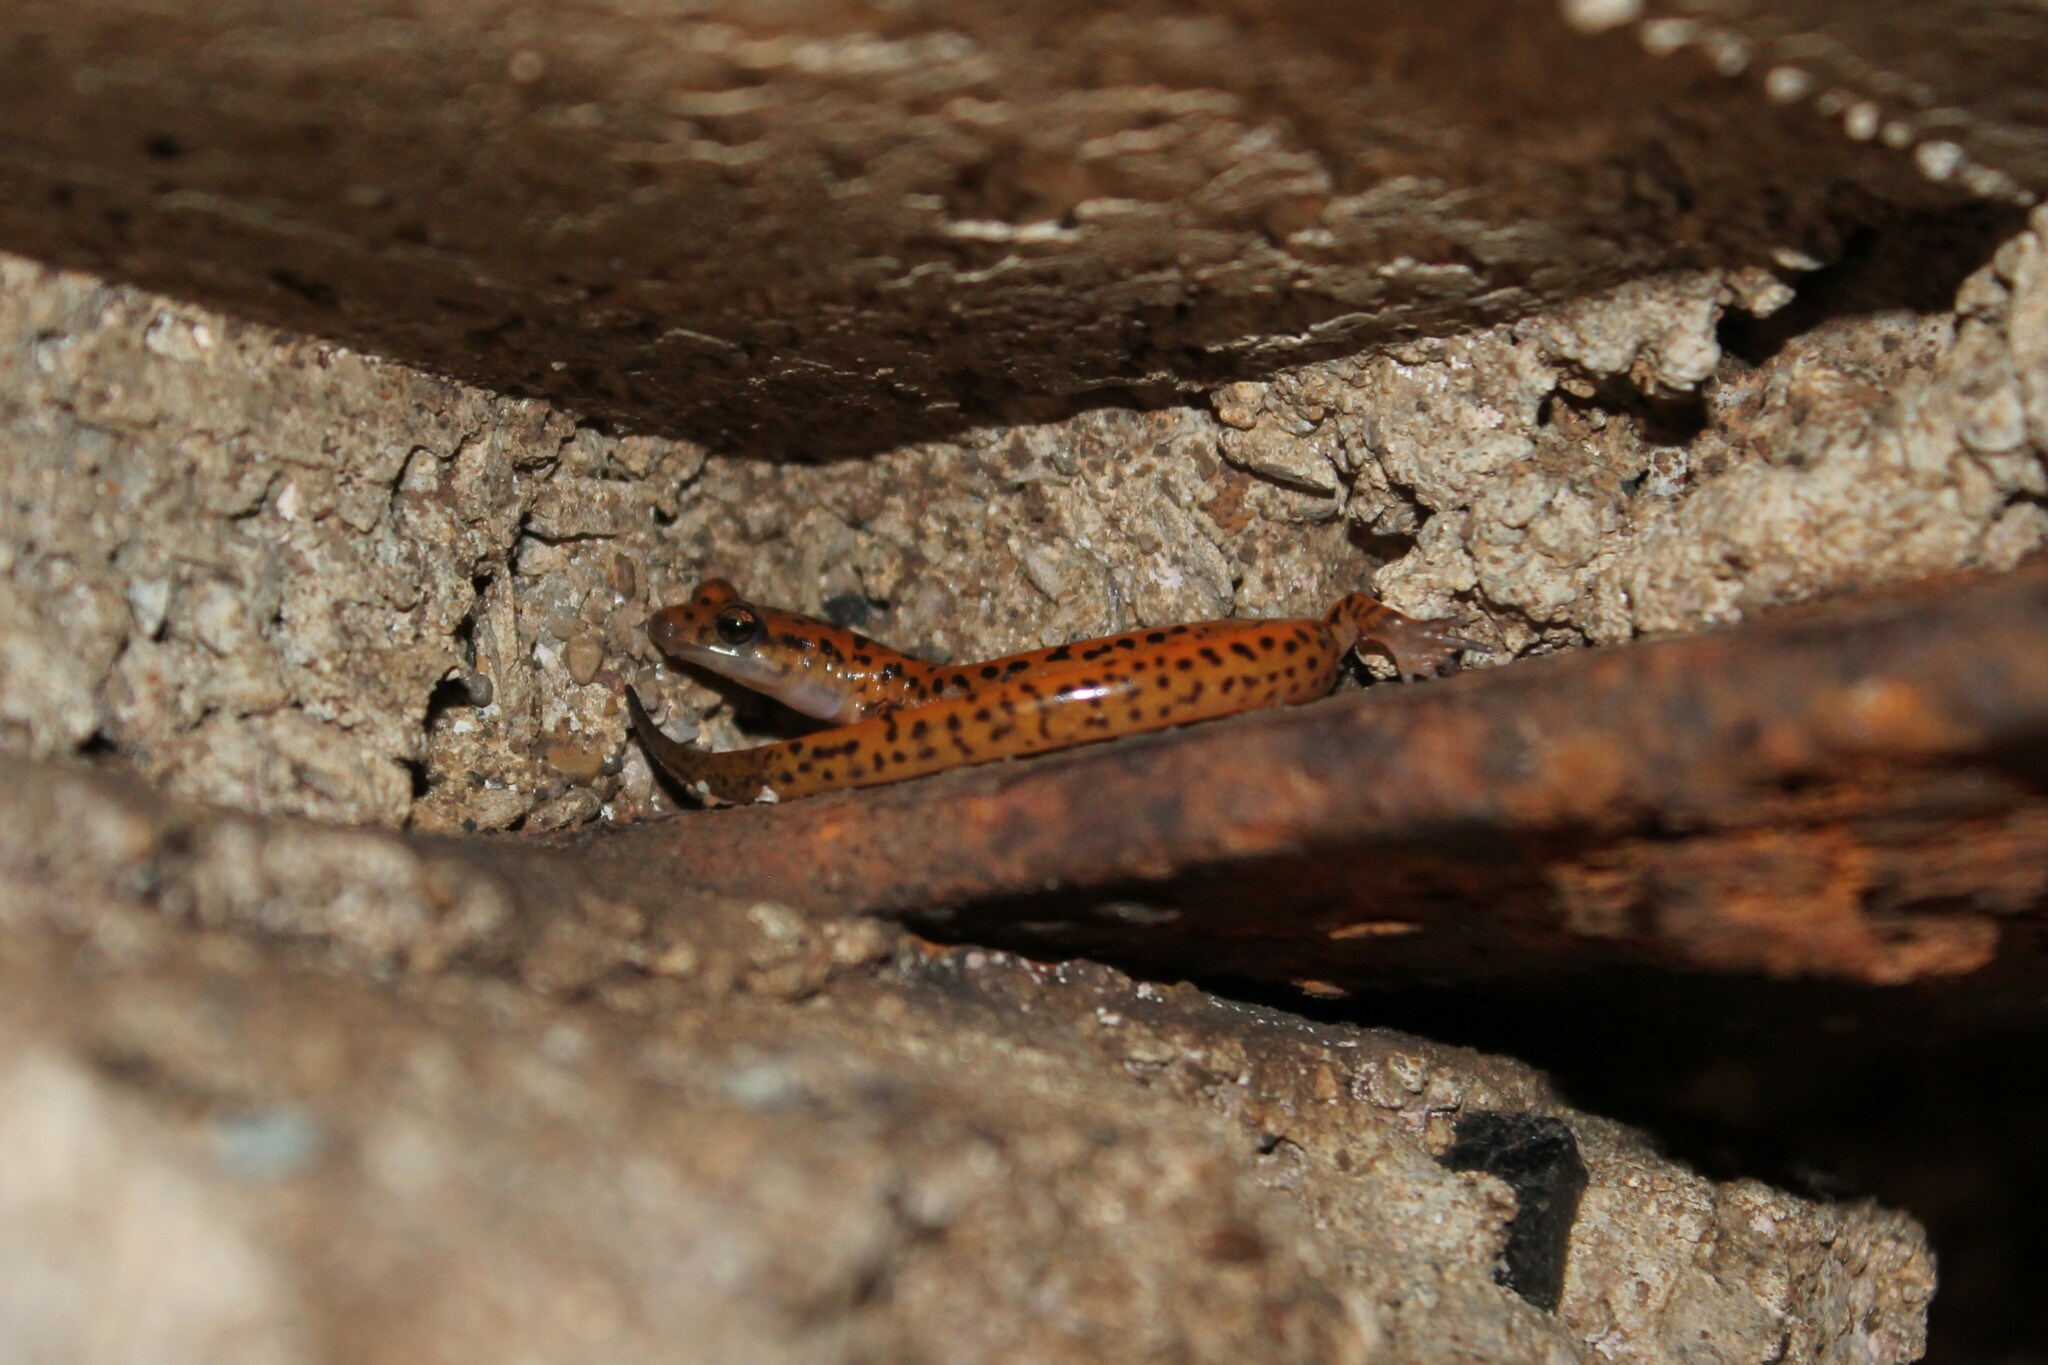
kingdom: Animalia
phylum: Chordata
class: Amphibia
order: Caudata
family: Plethodontidae
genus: Eurycea
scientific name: Eurycea lucifuga
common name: Cave salamander
